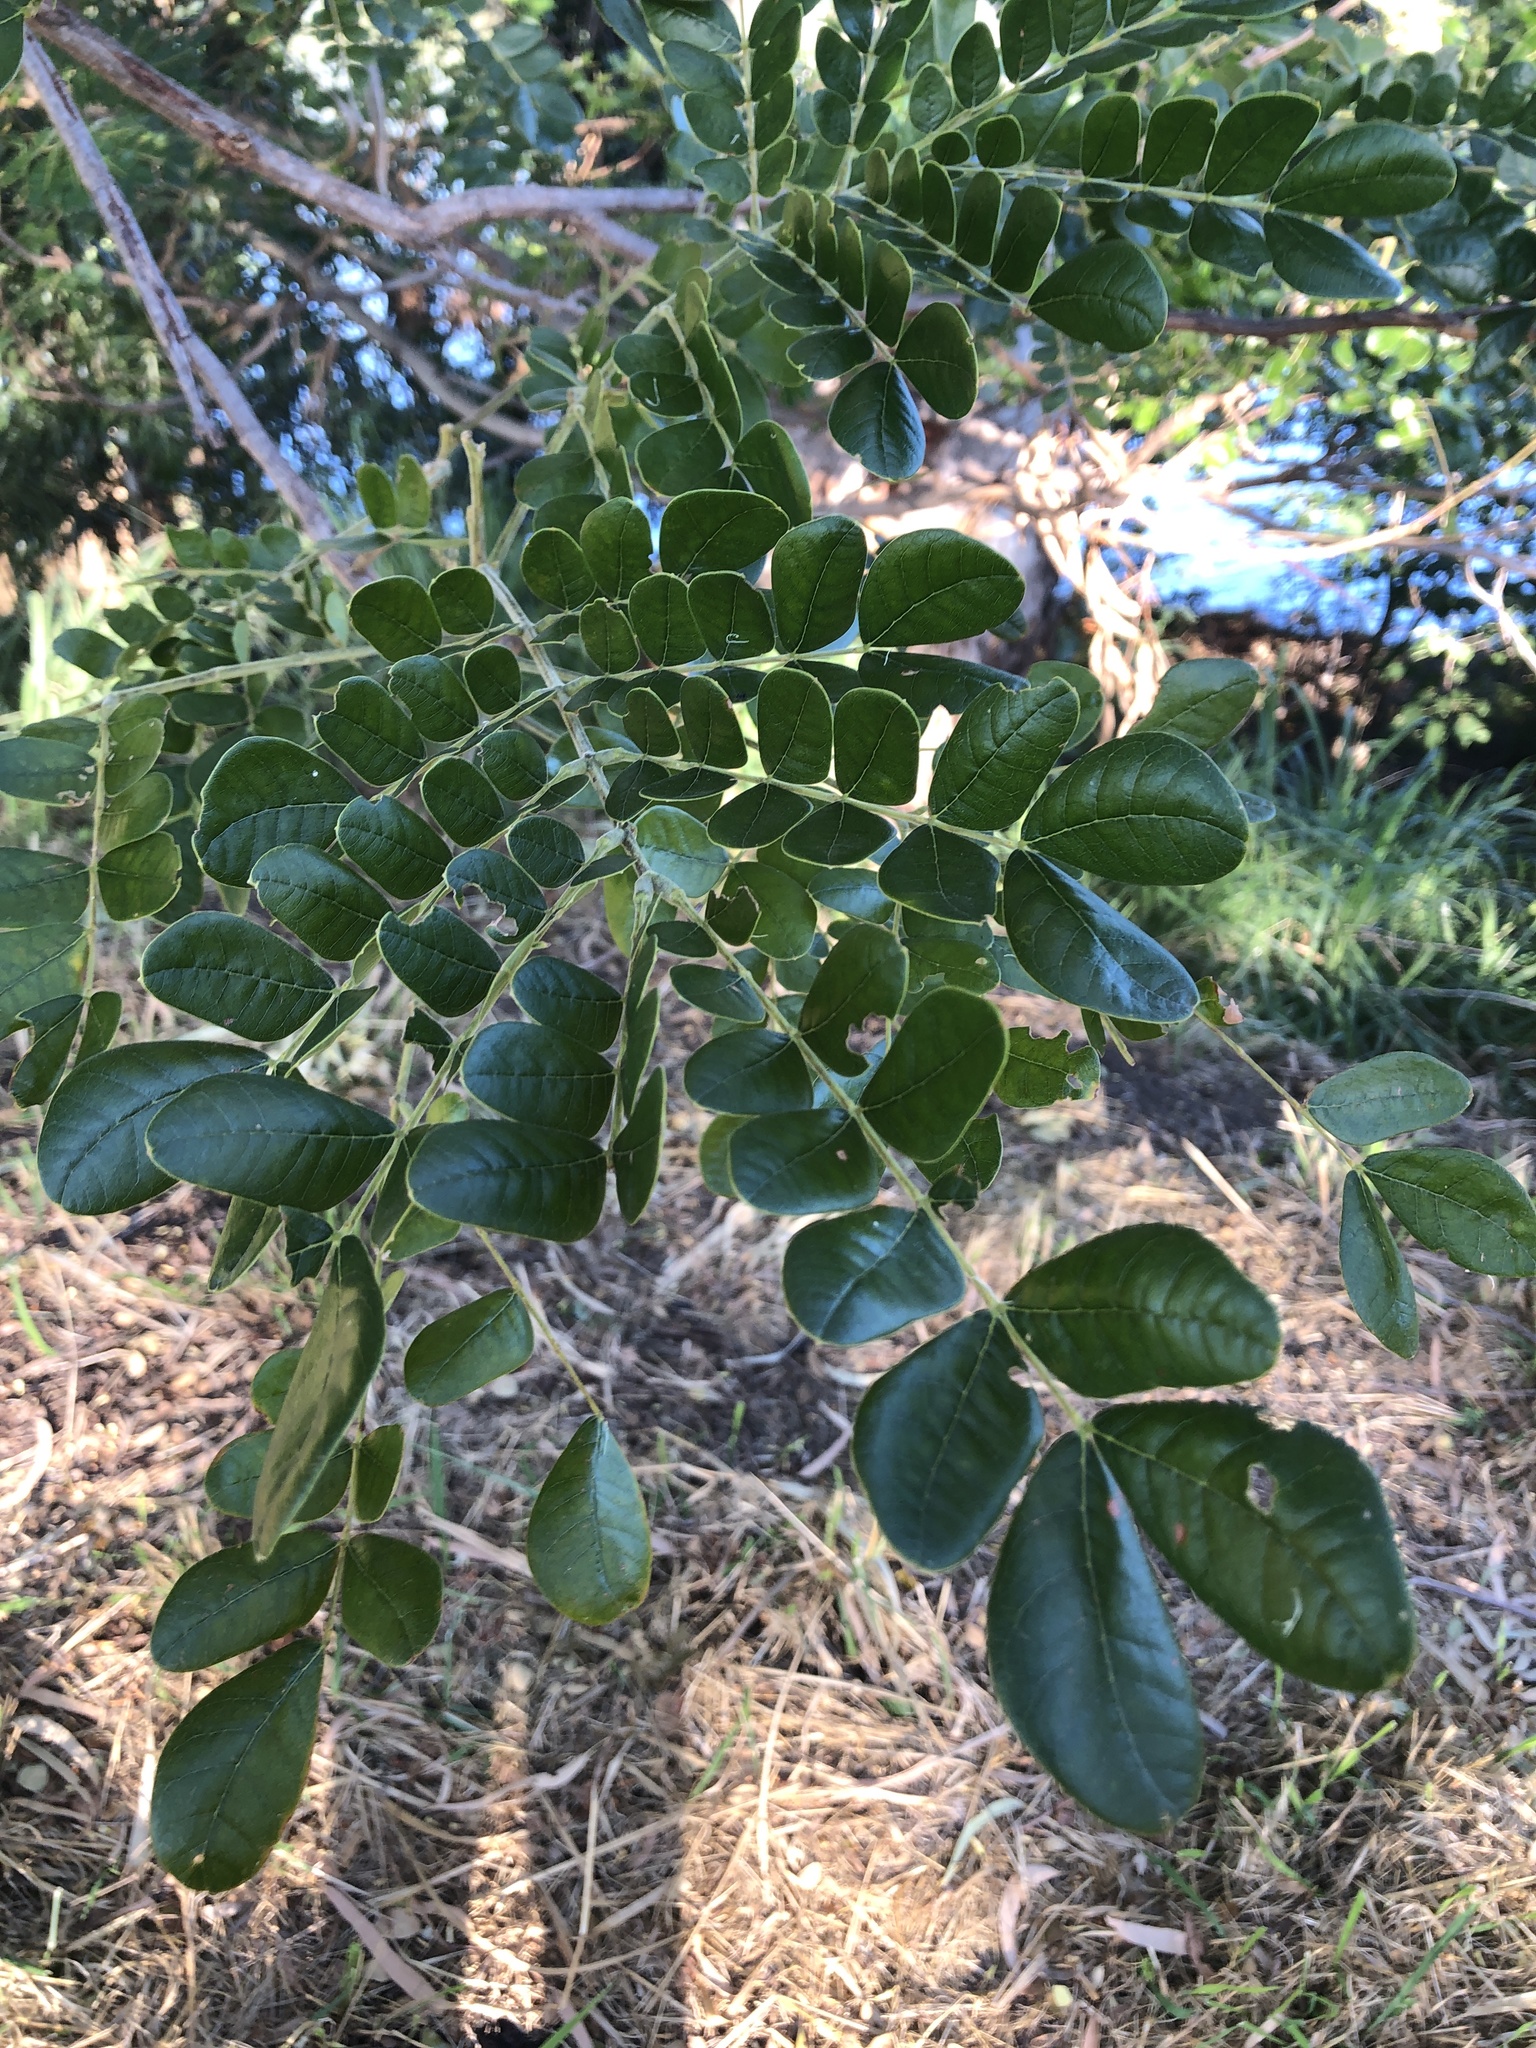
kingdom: Plantae
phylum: Tracheophyta
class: Magnoliopsida
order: Fabales
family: Fabaceae
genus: Samanea
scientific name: Samanea saman
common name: Raintree
